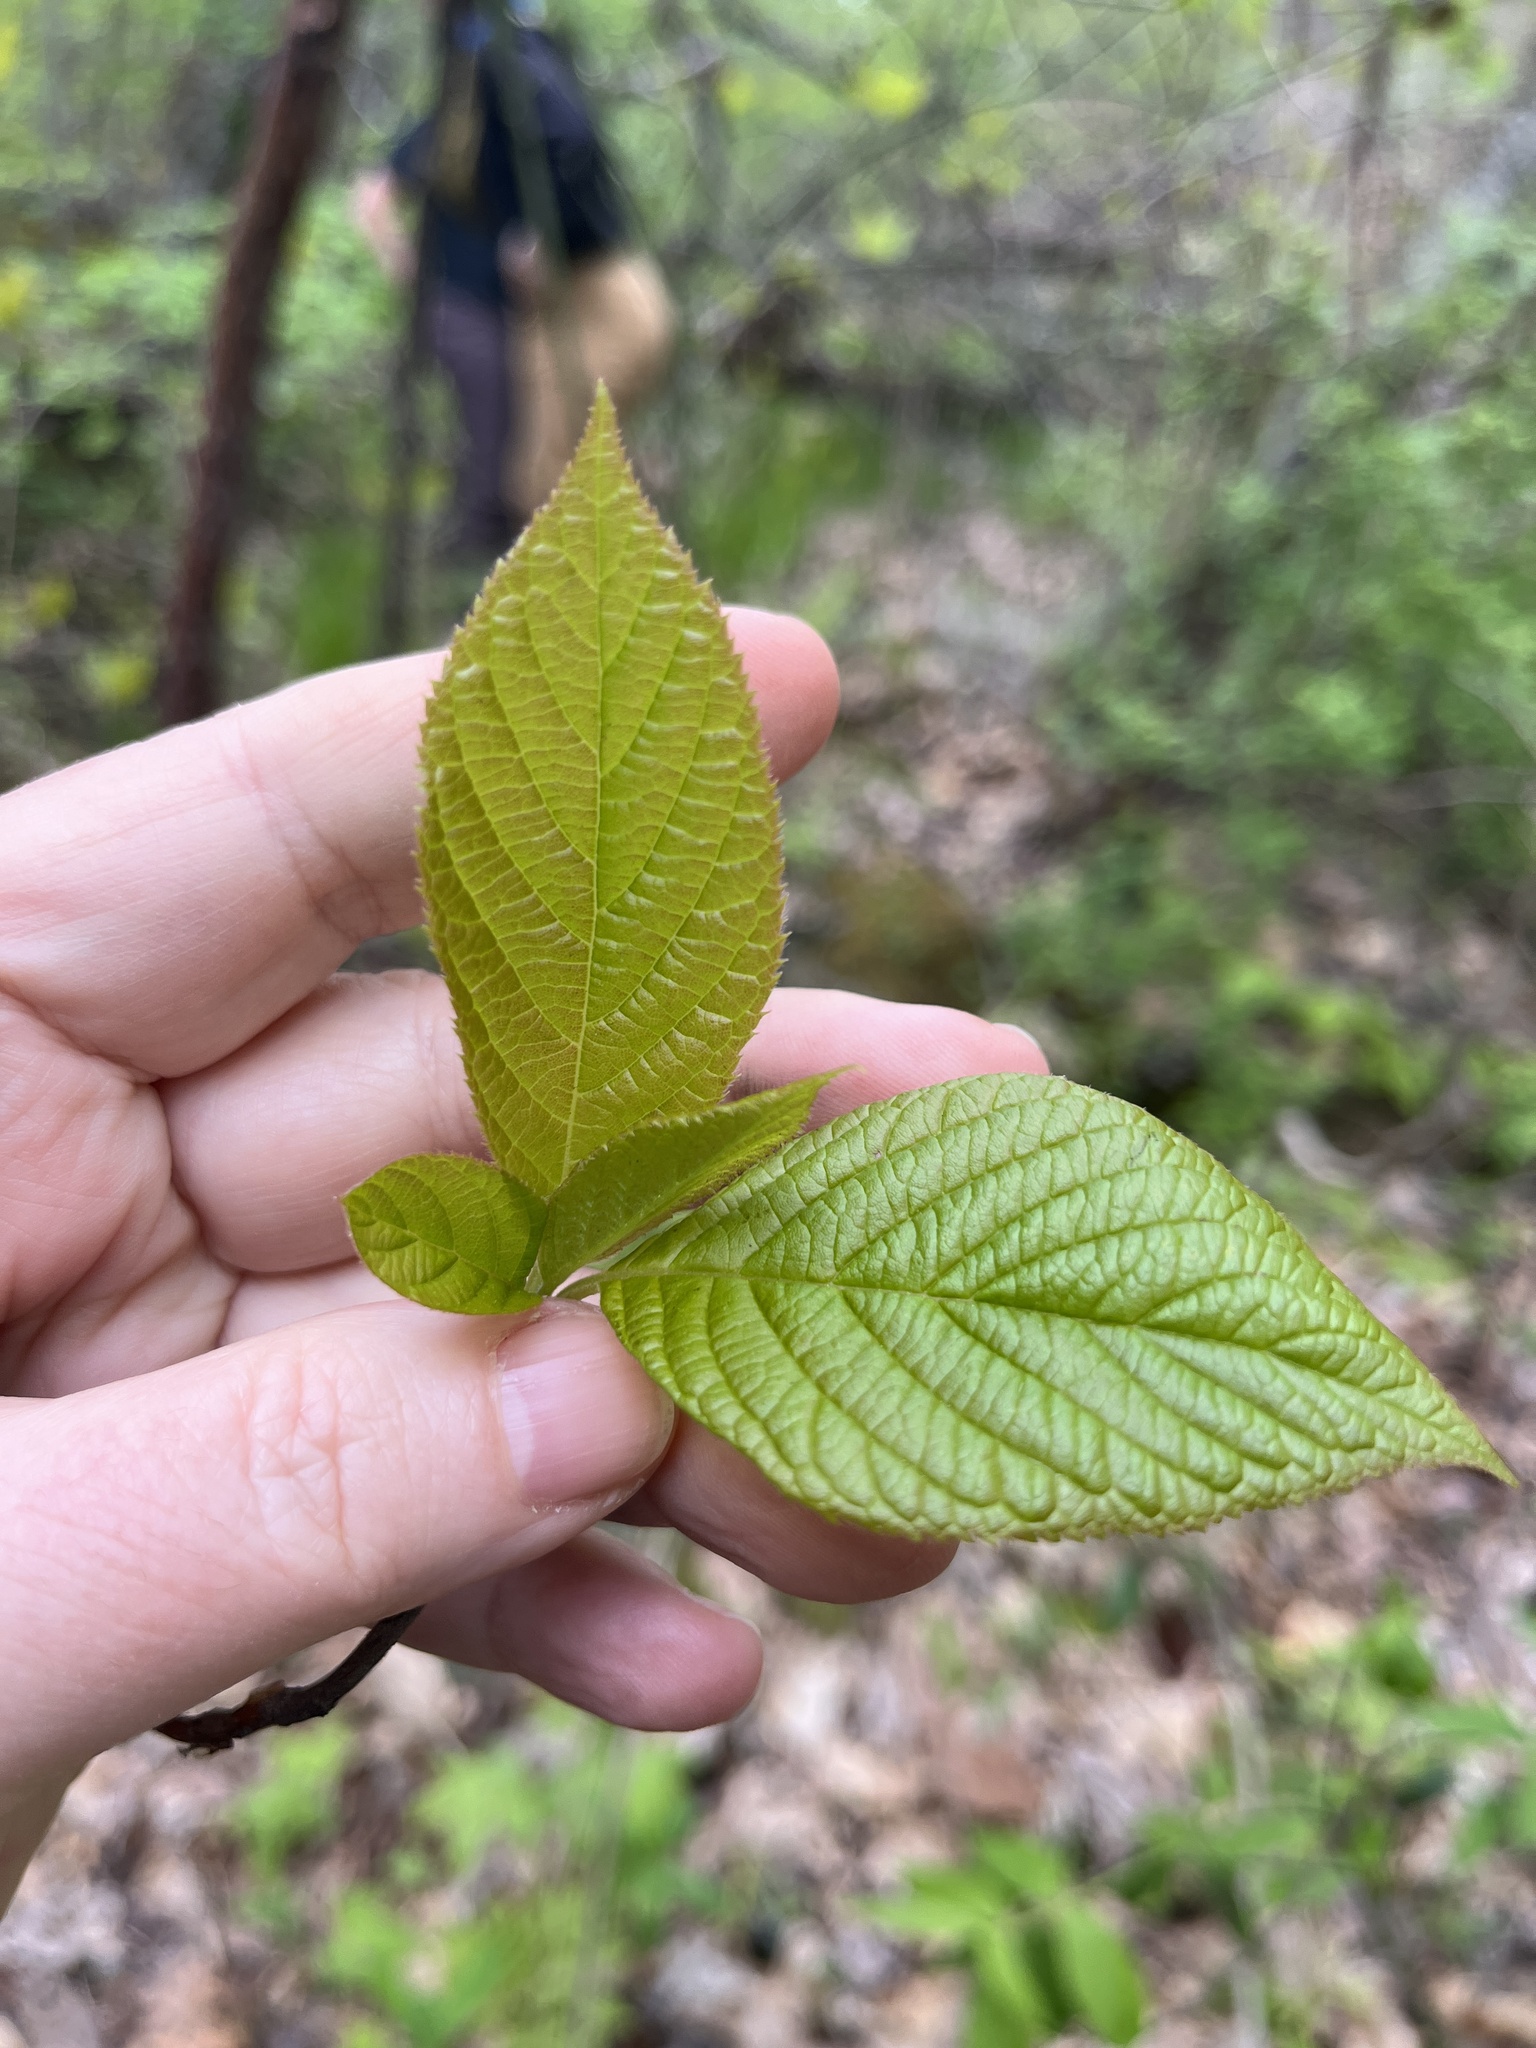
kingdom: Plantae
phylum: Tracheophyta
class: Magnoliopsida
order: Ericales
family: Clethraceae
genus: Clethra
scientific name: Clethra acuminata
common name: Mountain sweet pepperbush
